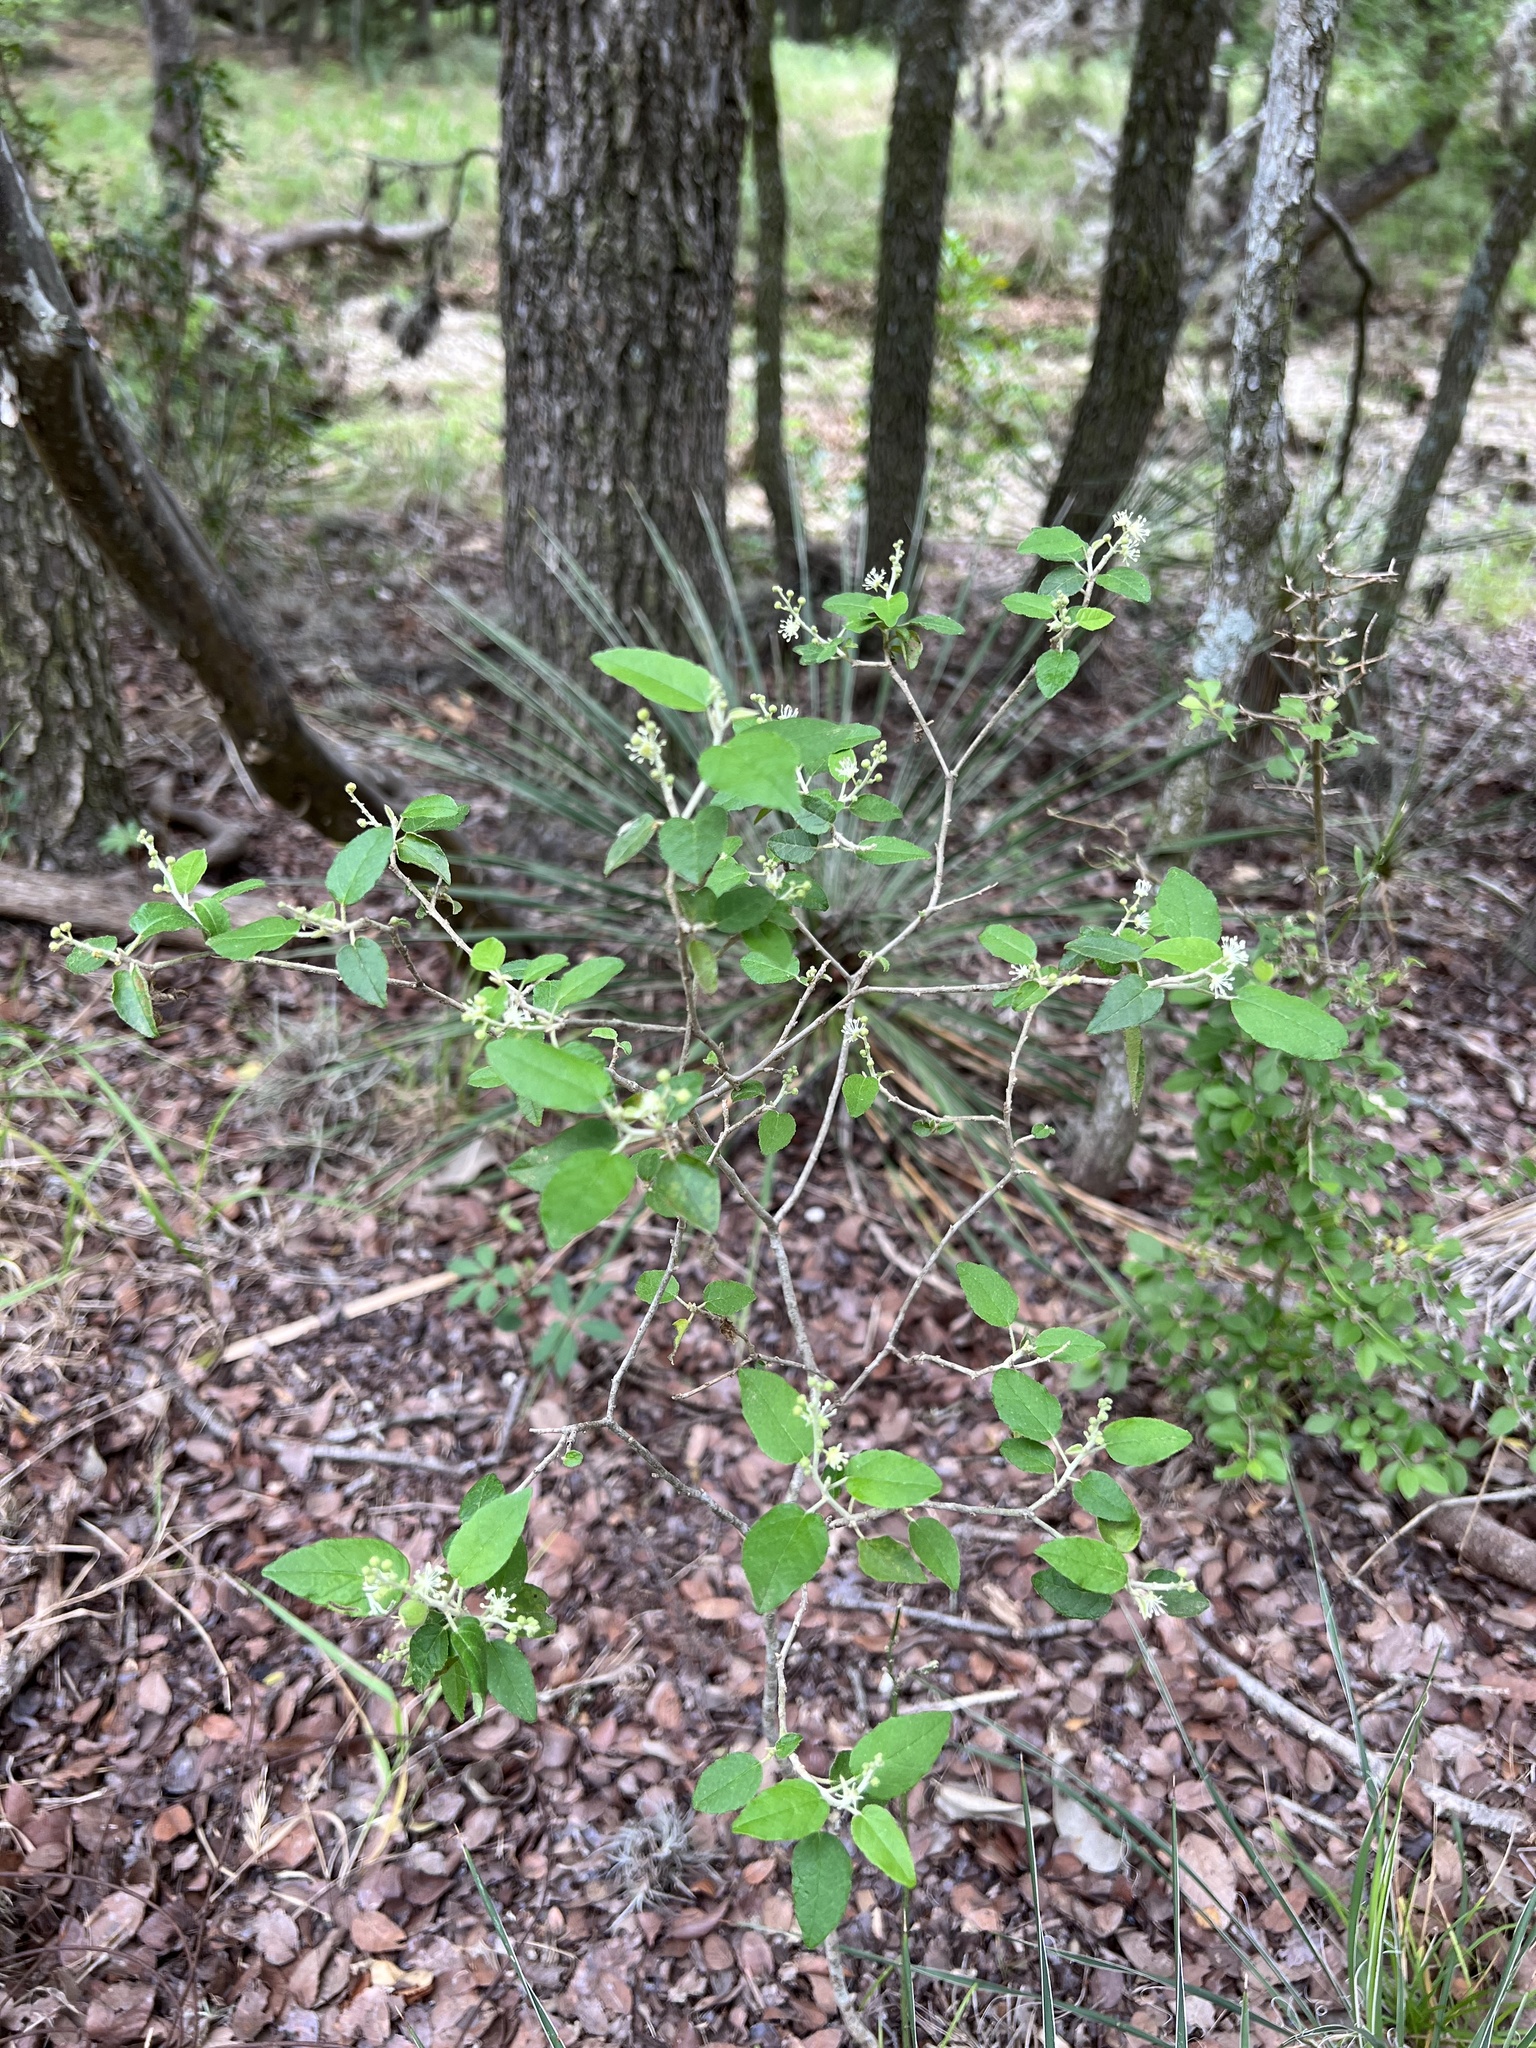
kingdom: Plantae
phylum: Tracheophyta
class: Magnoliopsida
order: Lamiales
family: Oleaceae
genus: Forestiera
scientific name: Forestiera pubescens
